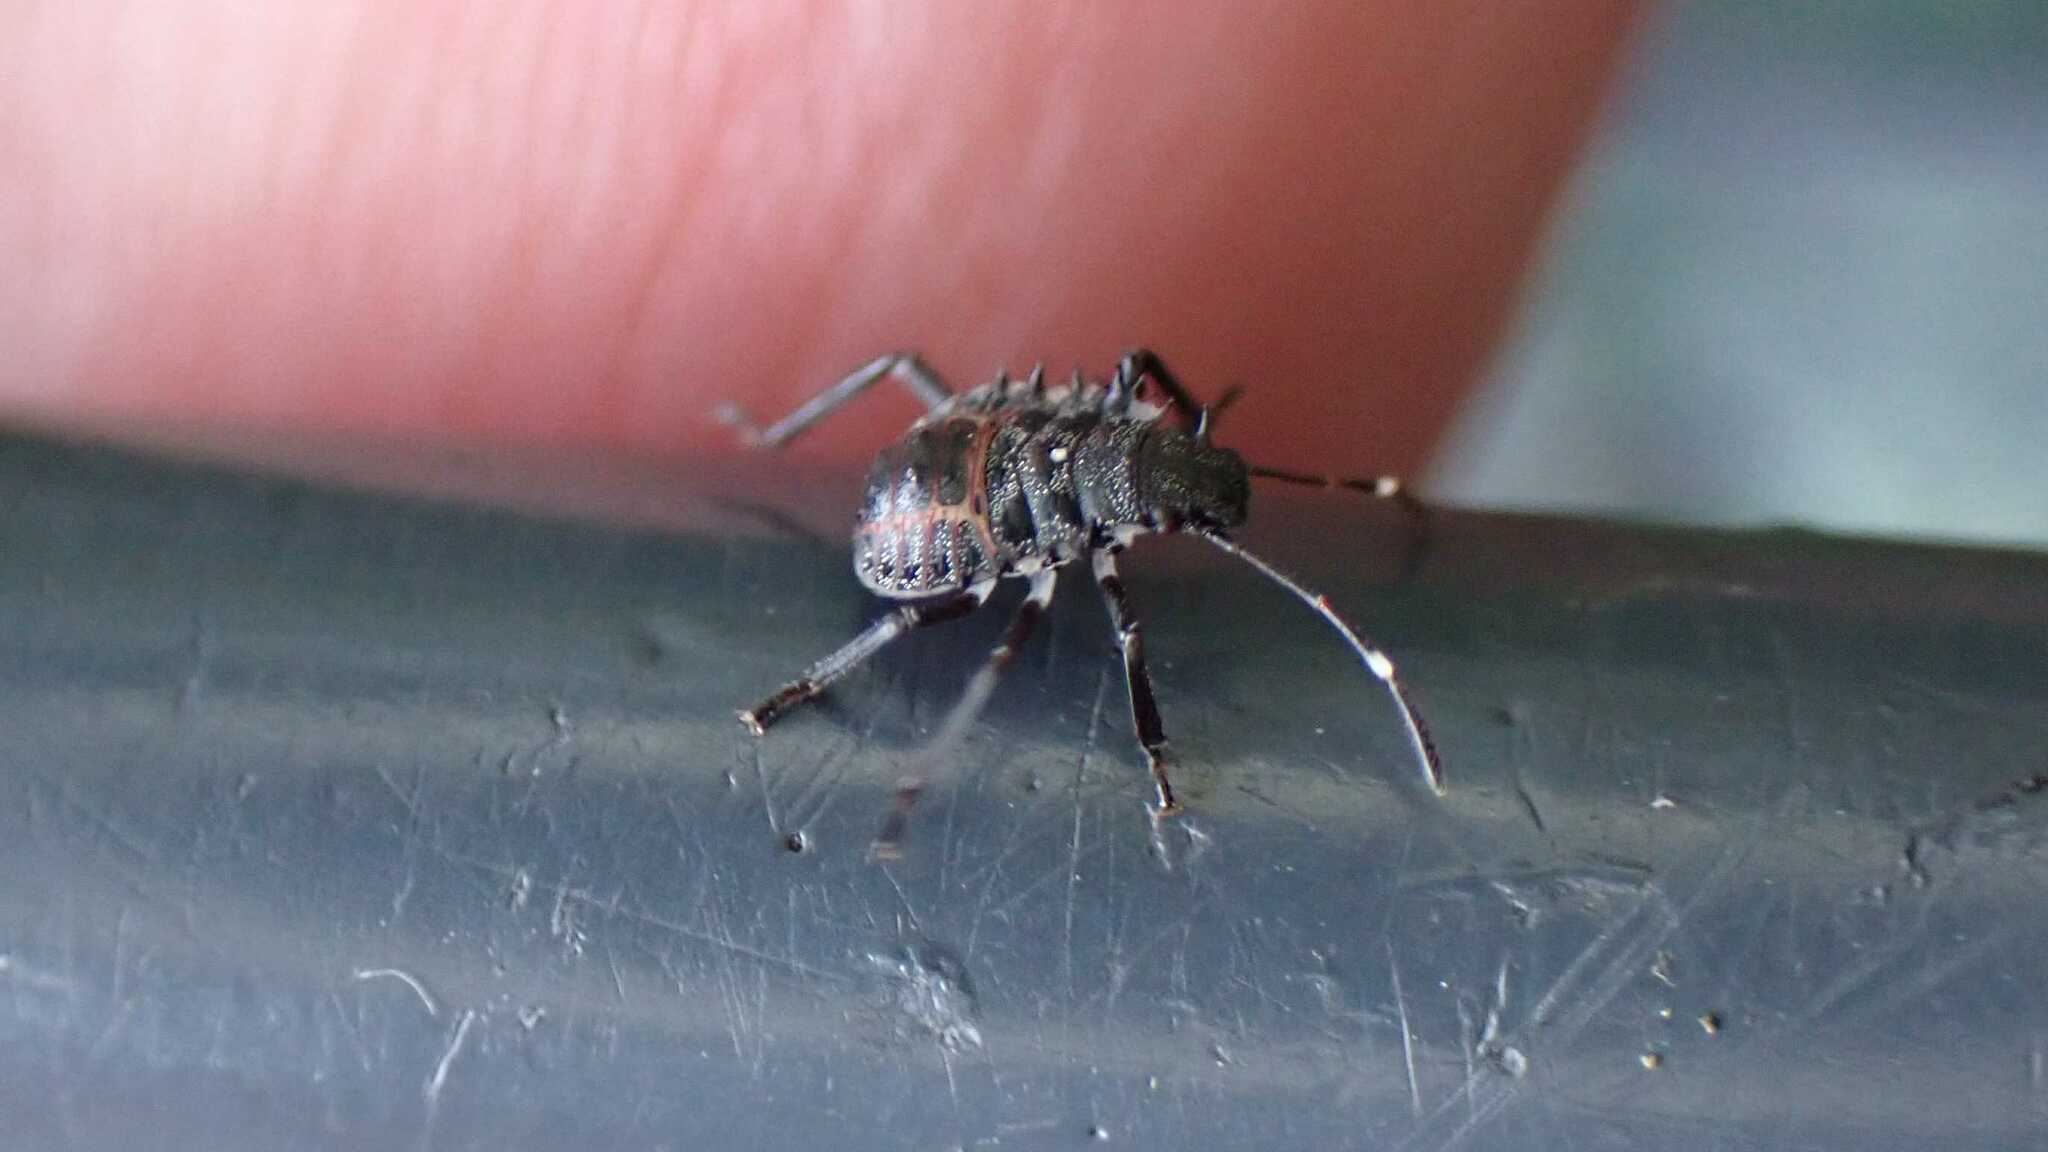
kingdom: Animalia
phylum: Arthropoda
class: Insecta
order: Hemiptera
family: Pentatomidae
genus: Halyomorpha
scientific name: Halyomorpha halys
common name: Brown marmorated stink bug
